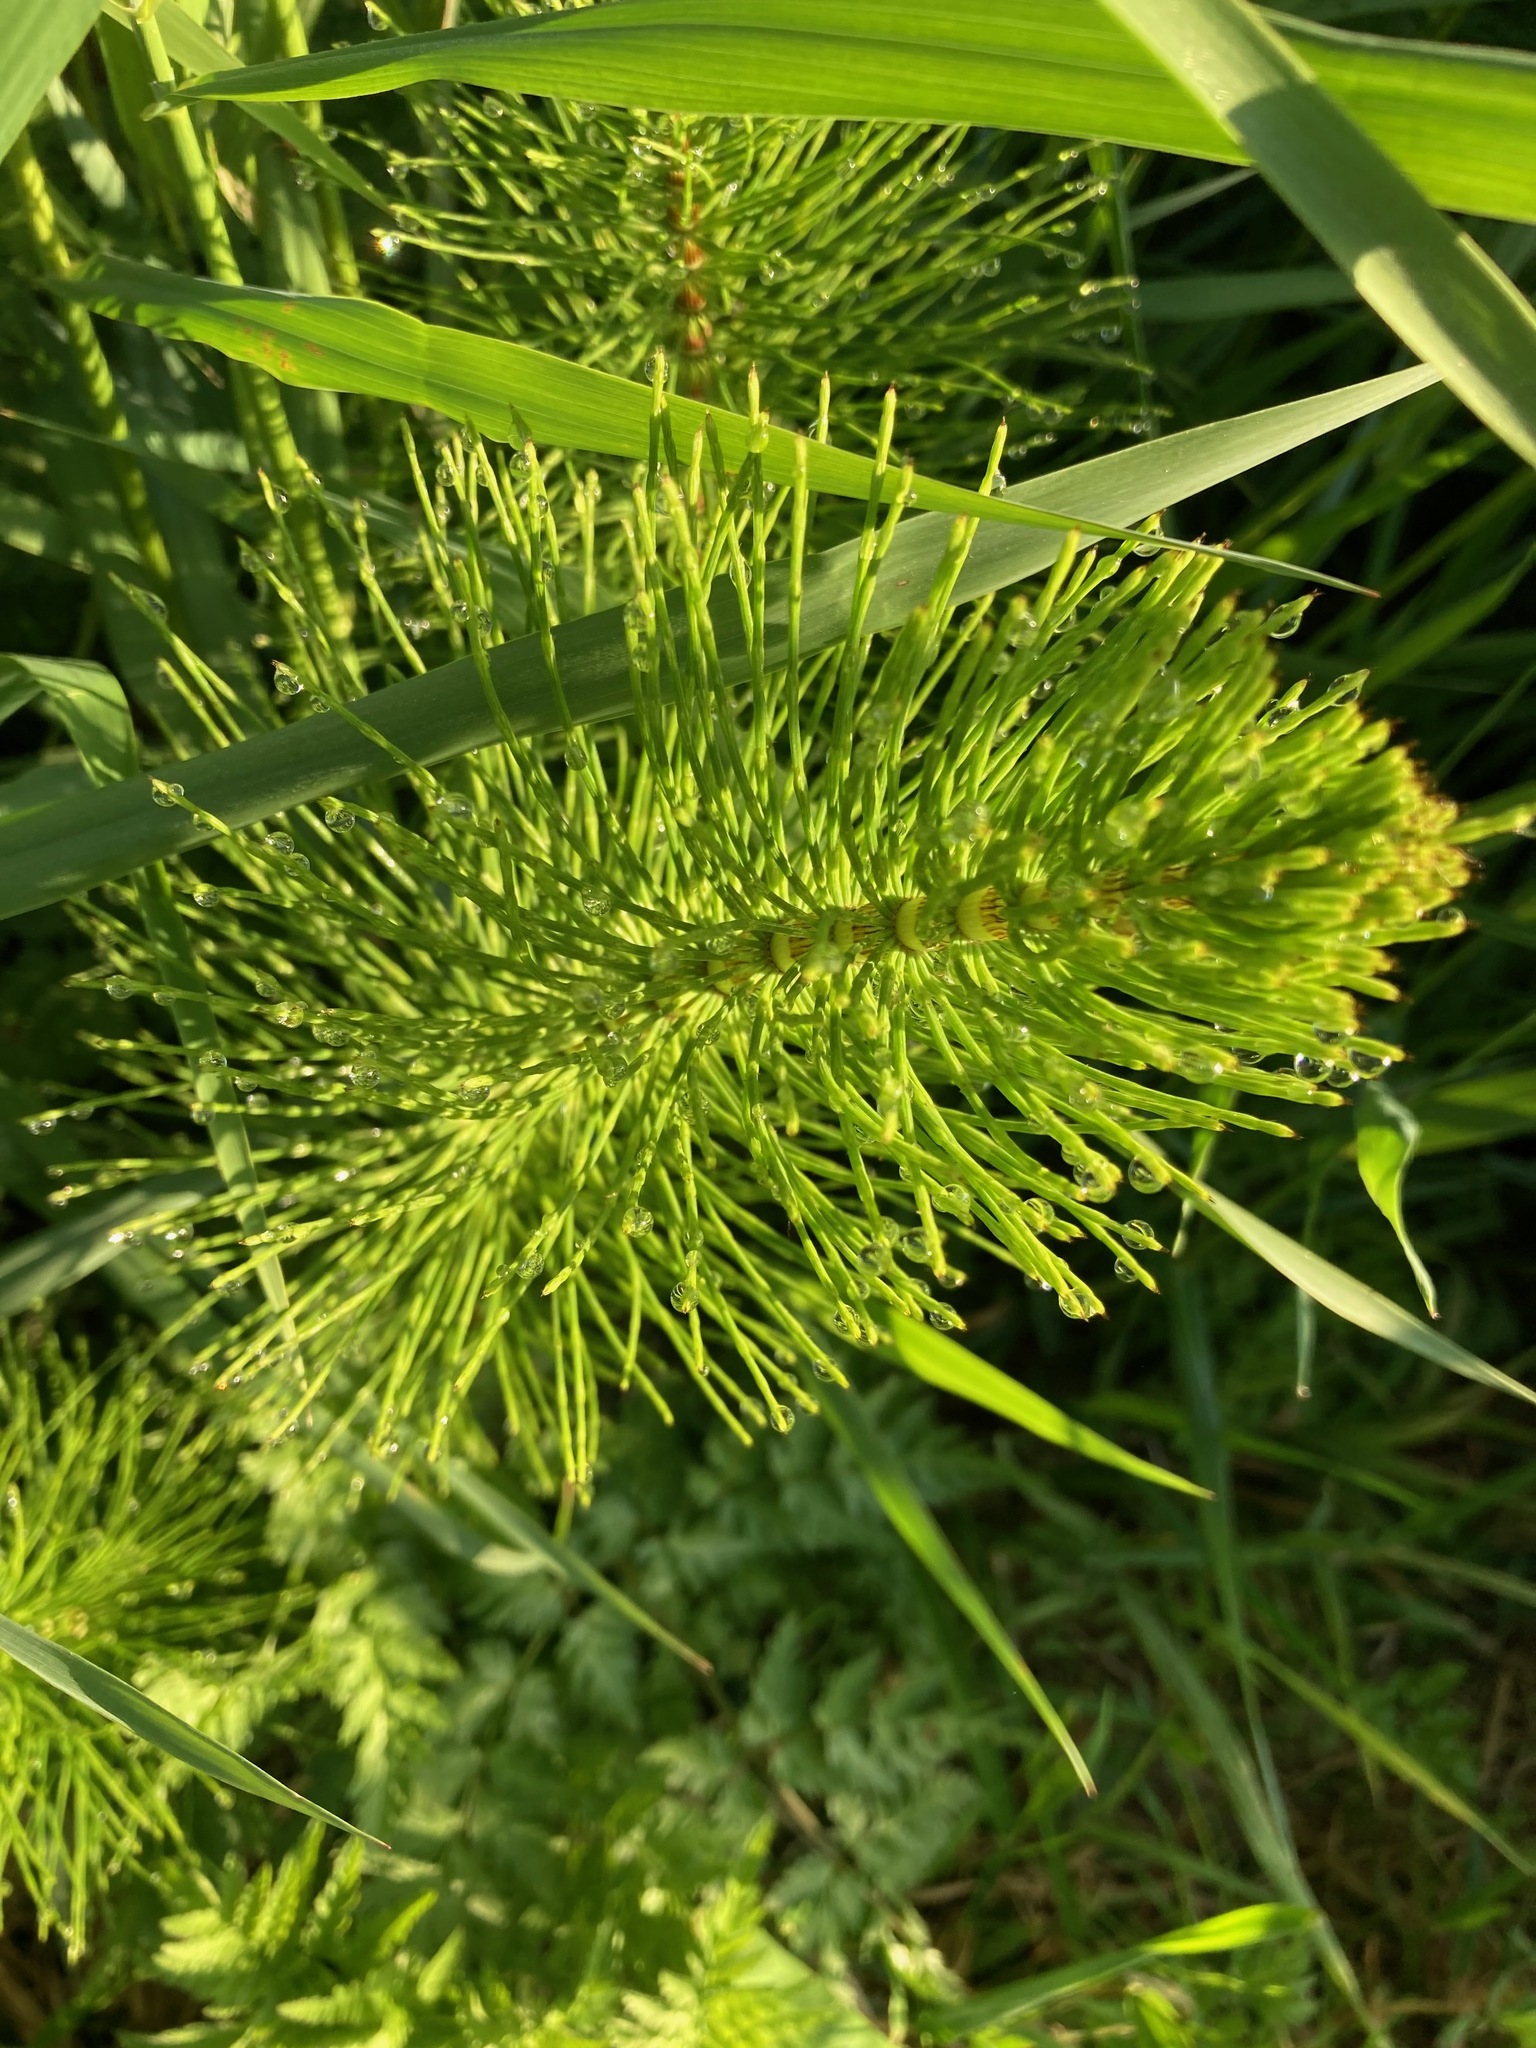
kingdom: Plantae
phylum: Tracheophyta
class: Polypodiopsida
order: Equisetales
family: Equisetaceae
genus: Equisetum
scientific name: Equisetum braunii
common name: Braun's horsetail
